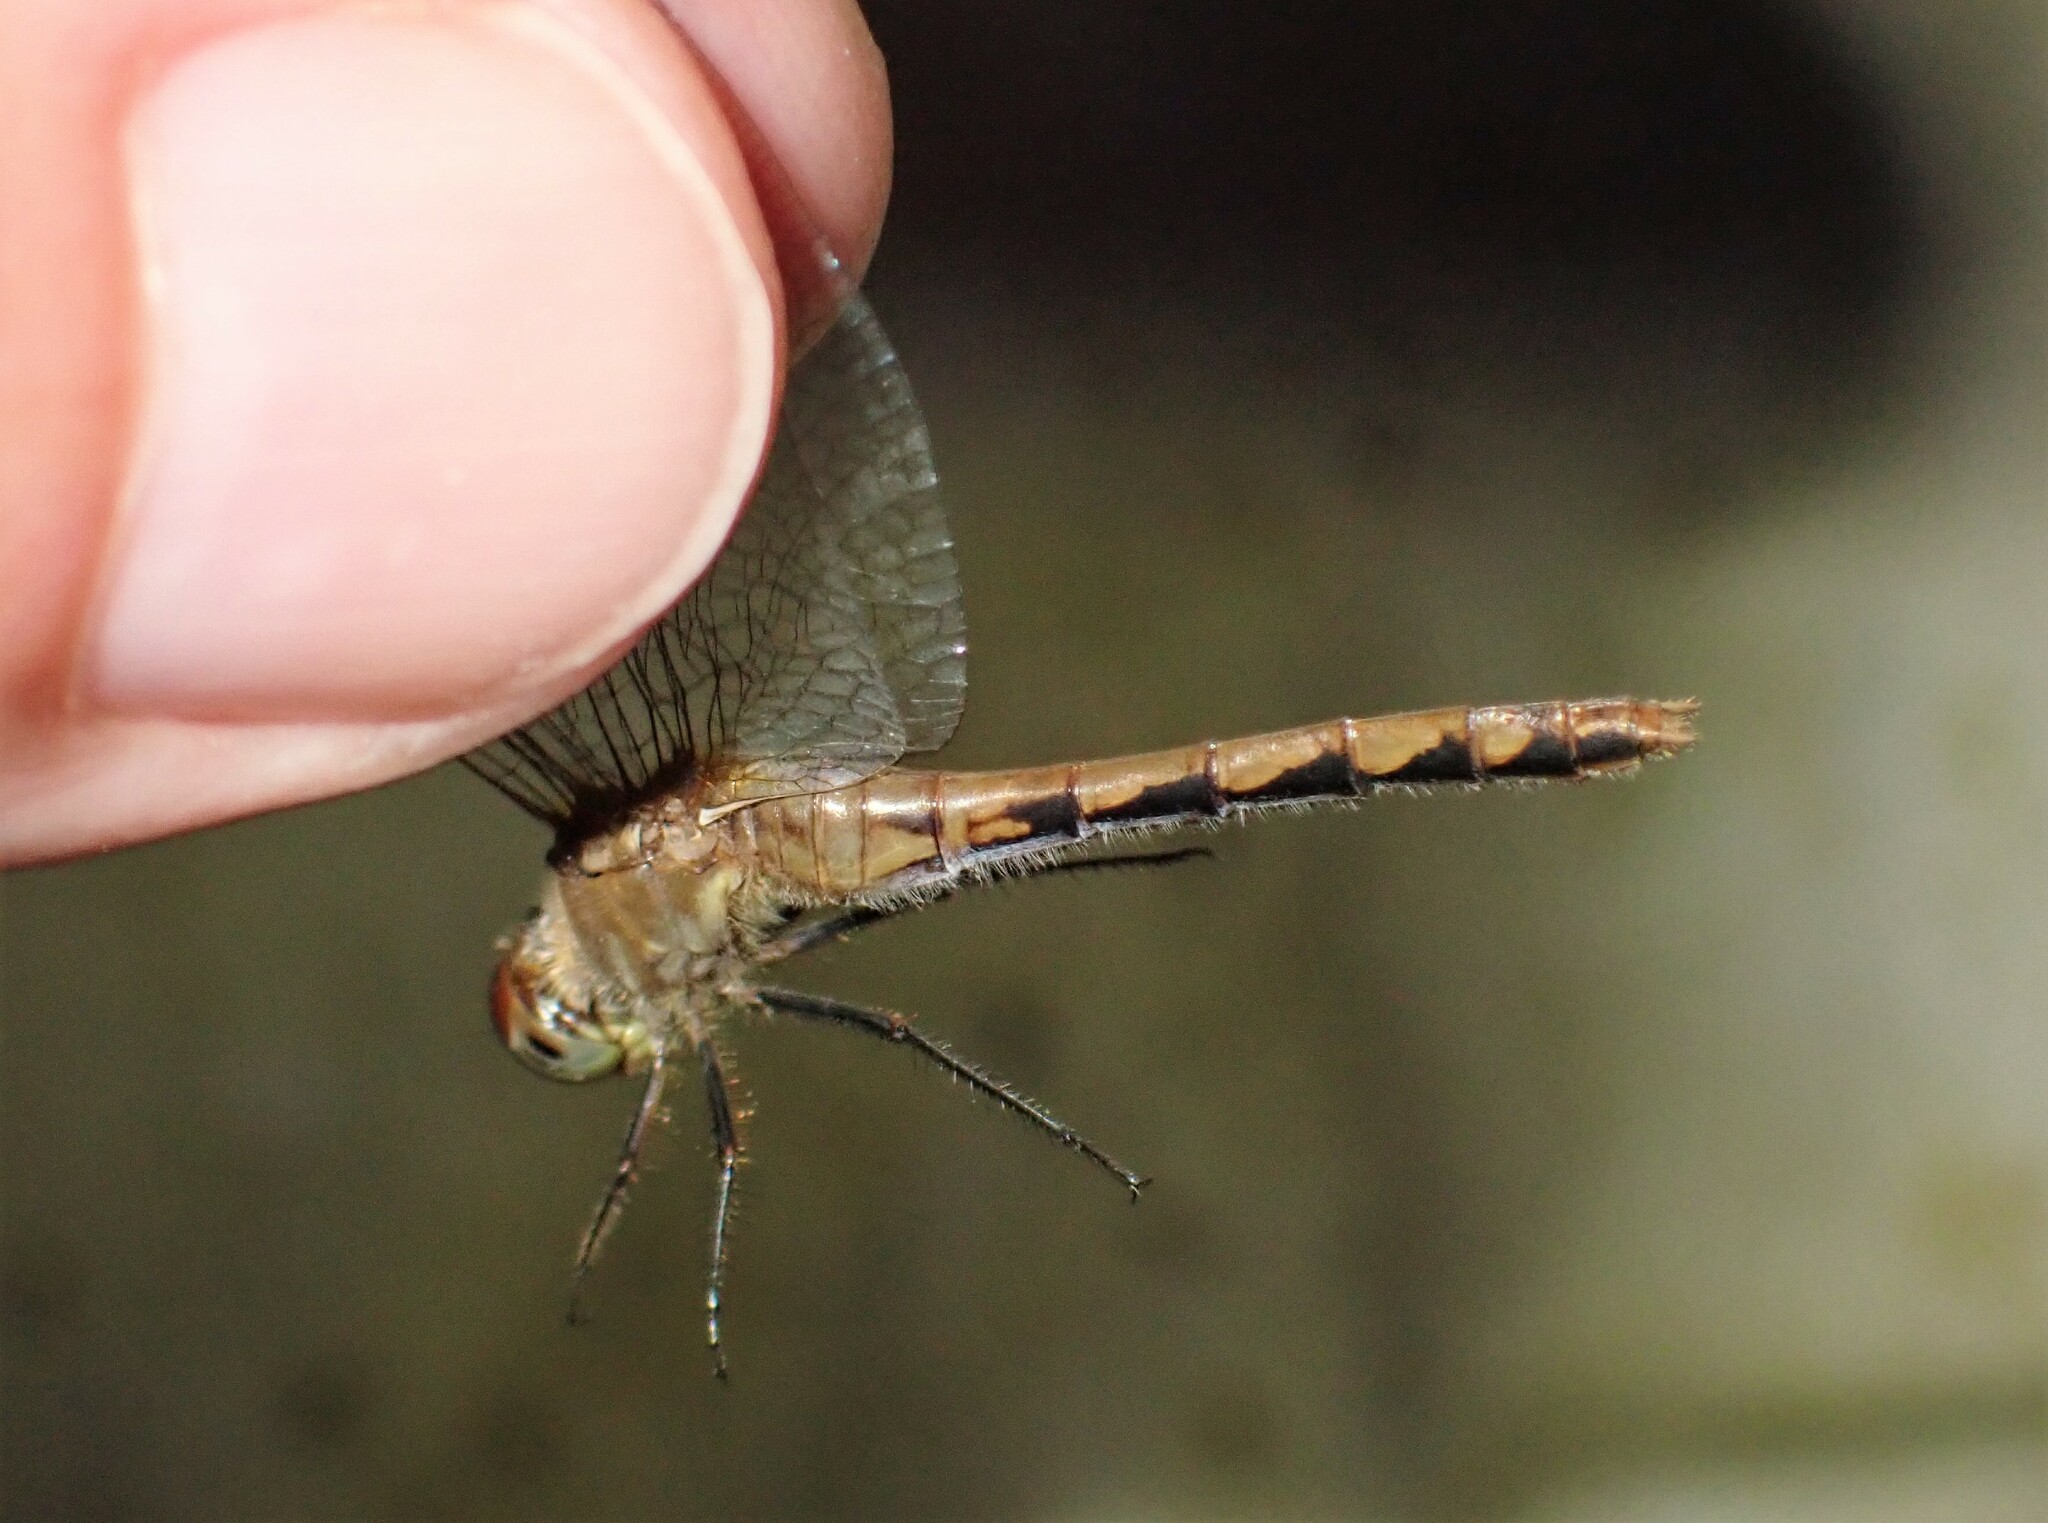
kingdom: Animalia
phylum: Arthropoda
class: Insecta
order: Odonata
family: Libellulidae
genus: Sympetrum
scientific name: Sympetrum
